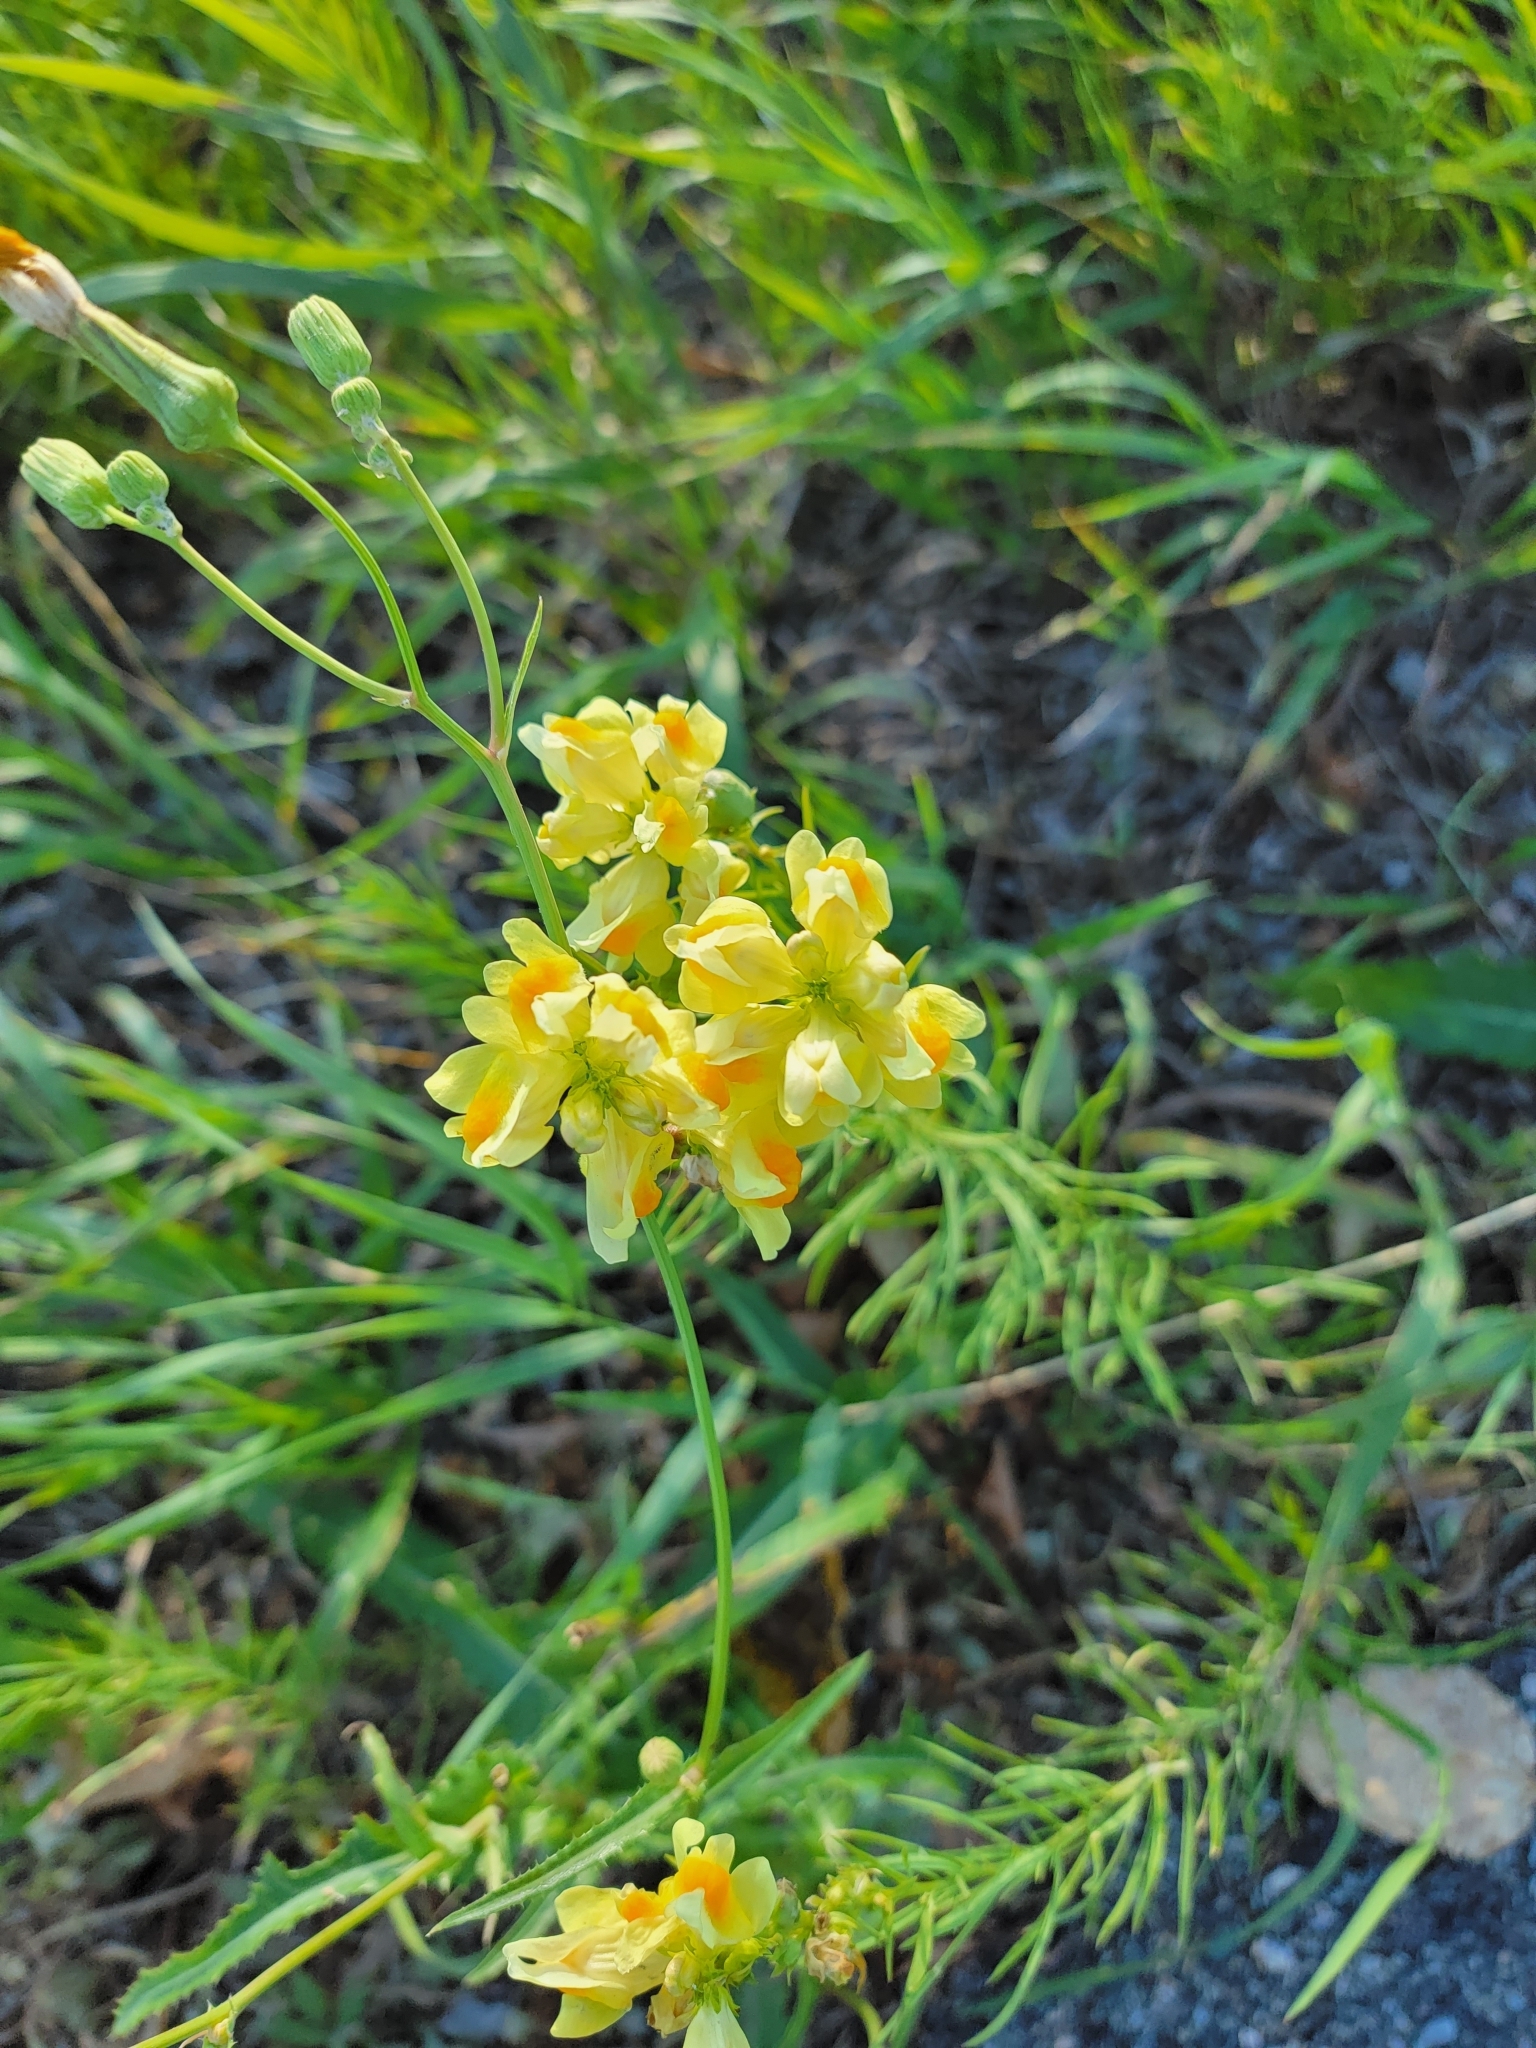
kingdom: Plantae
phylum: Tracheophyta
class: Magnoliopsida
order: Lamiales
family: Plantaginaceae
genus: Linaria
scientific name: Linaria vulgaris
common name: Butter and eggs
